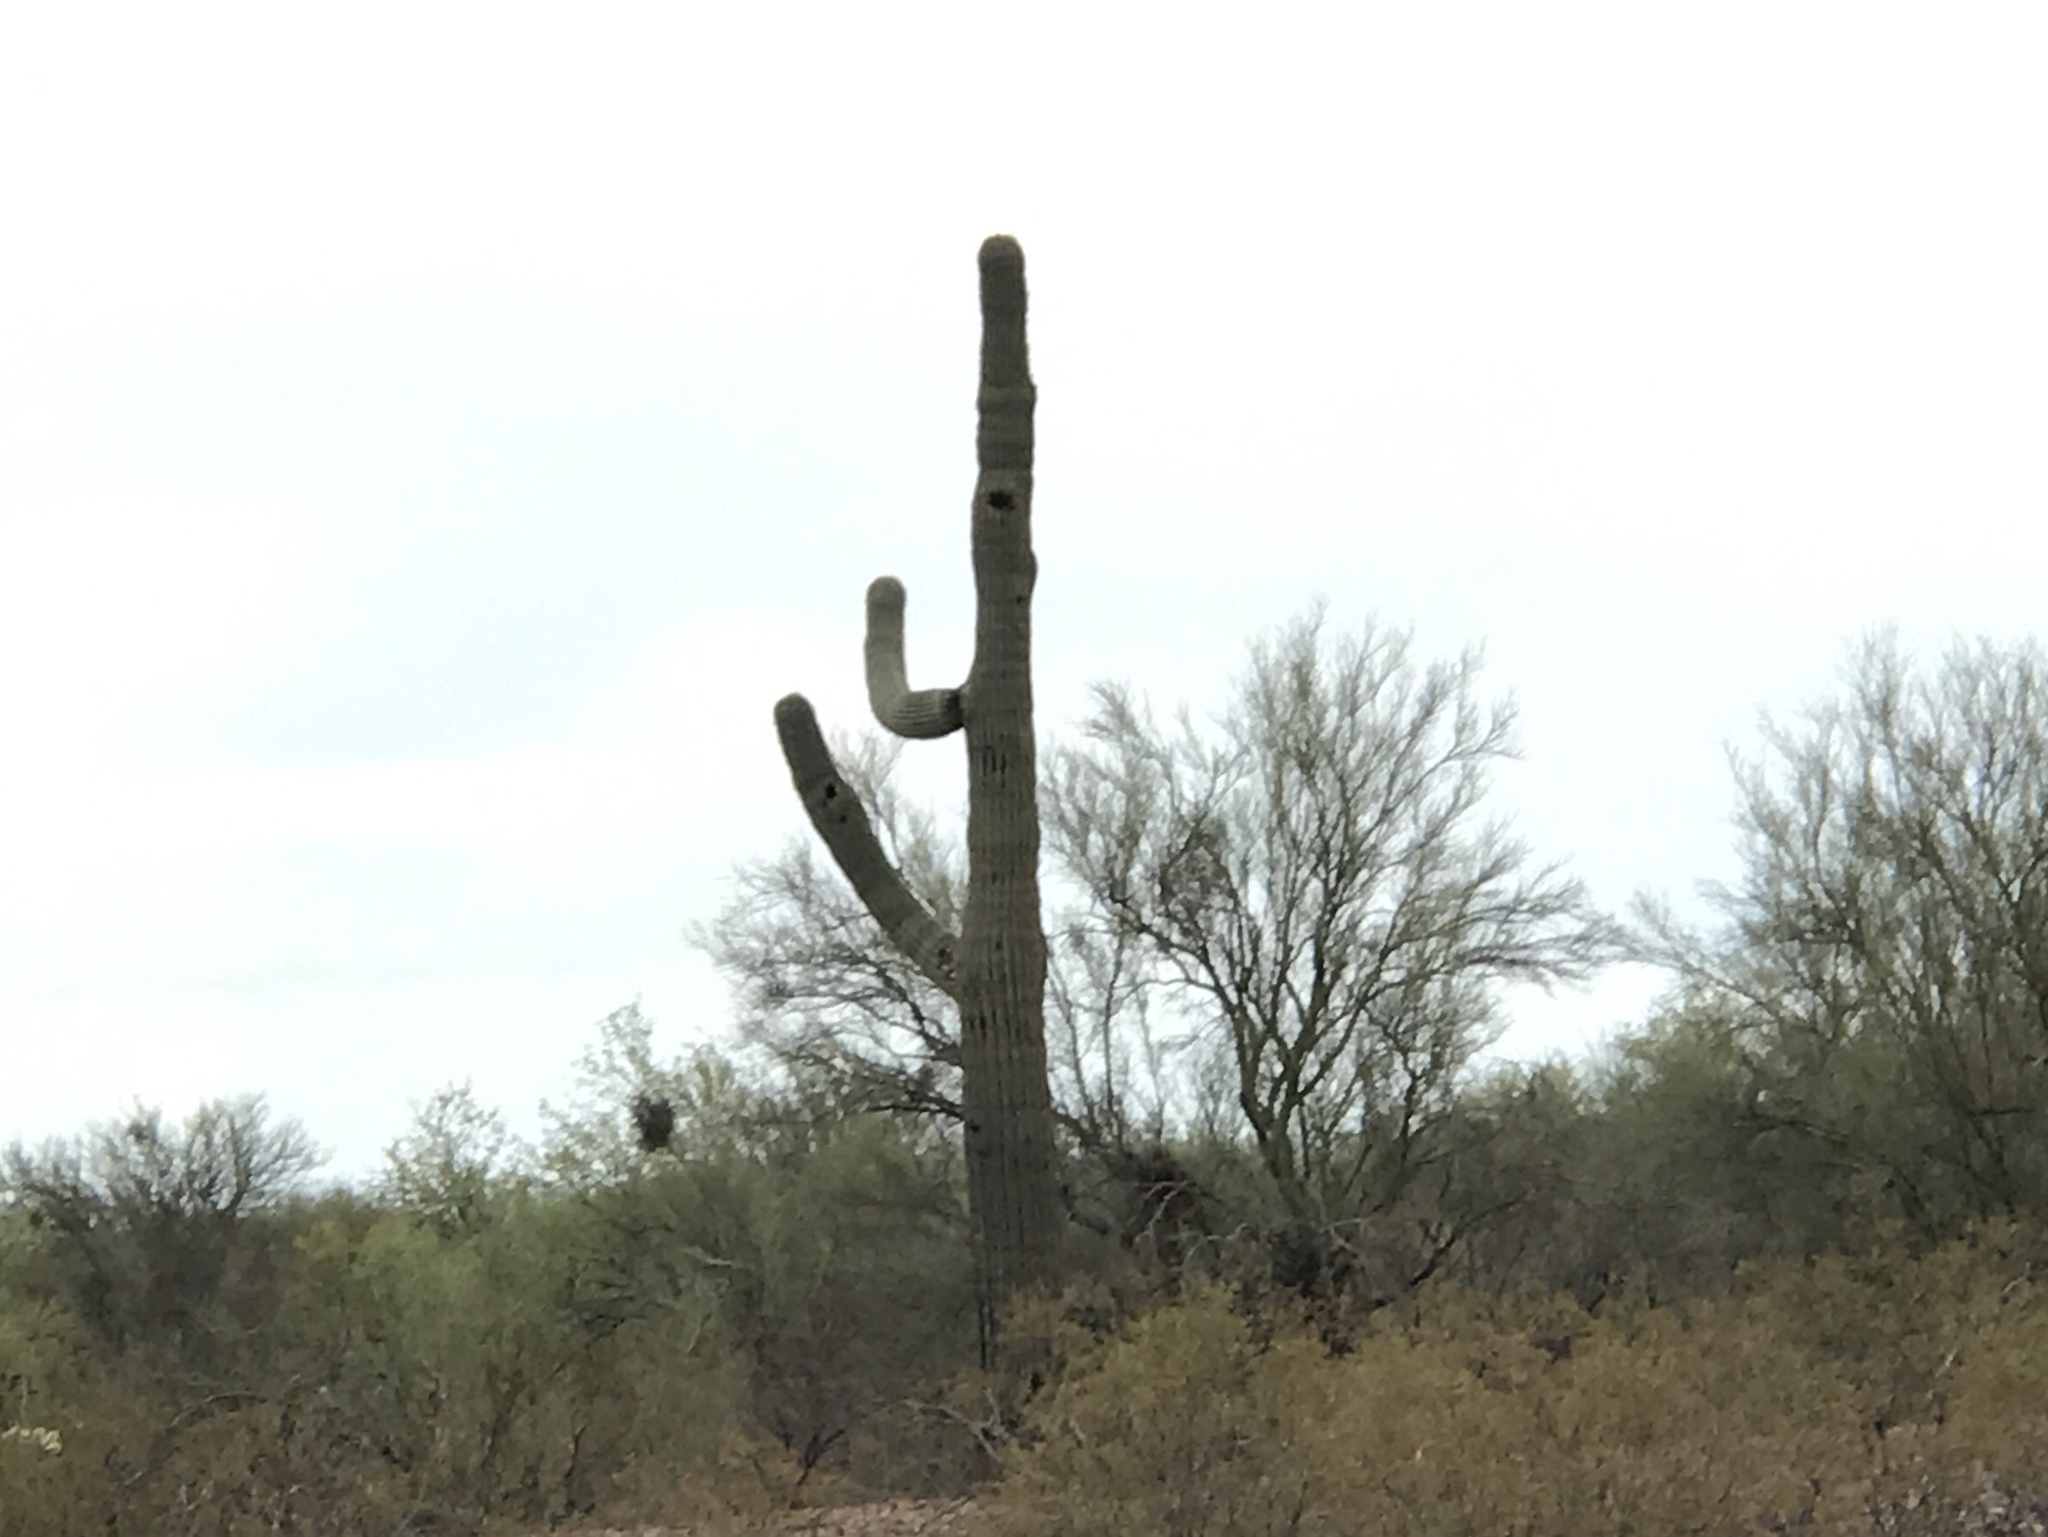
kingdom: Plantae
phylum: Tracheophyta
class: Magnoliopsida
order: Caryophyllales
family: Cactaceae
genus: Carnegiea
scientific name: Carnegiea gigantea
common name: Saguaro
